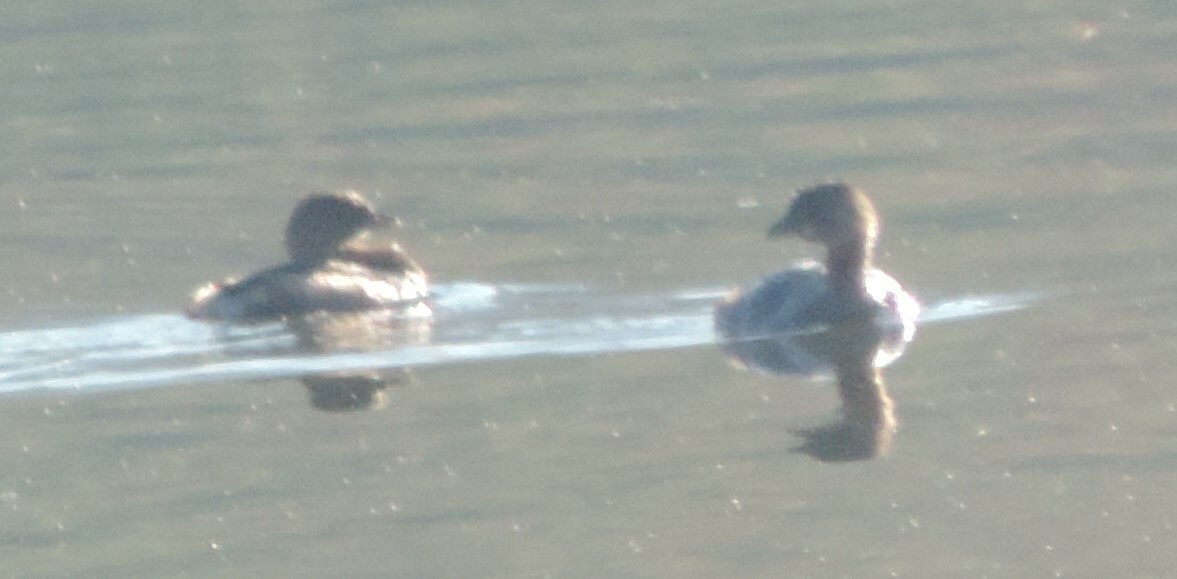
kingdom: Animalia
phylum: Chordata
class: Aves
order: Podicipediformes
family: Podicipedidae
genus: Podilymbus
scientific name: Podilymbus podiceps
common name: Pied-billed grebe
